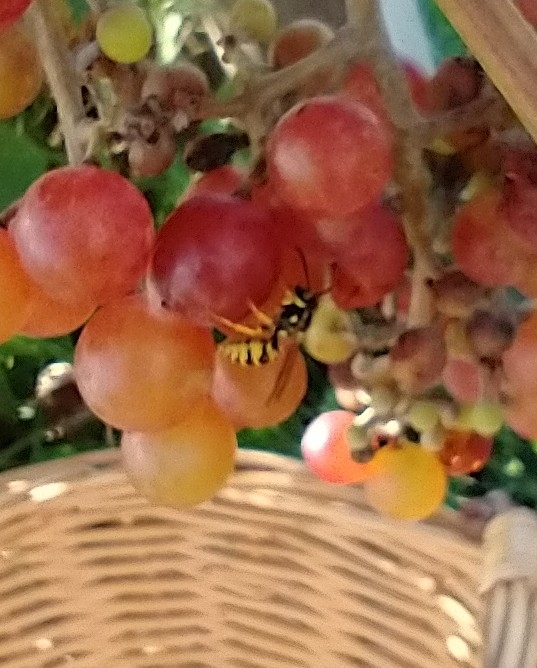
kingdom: Animalia
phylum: Arthropoda
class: Insecta
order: Hymenoptera
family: Vespidae
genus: Vespula
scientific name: Vespula
